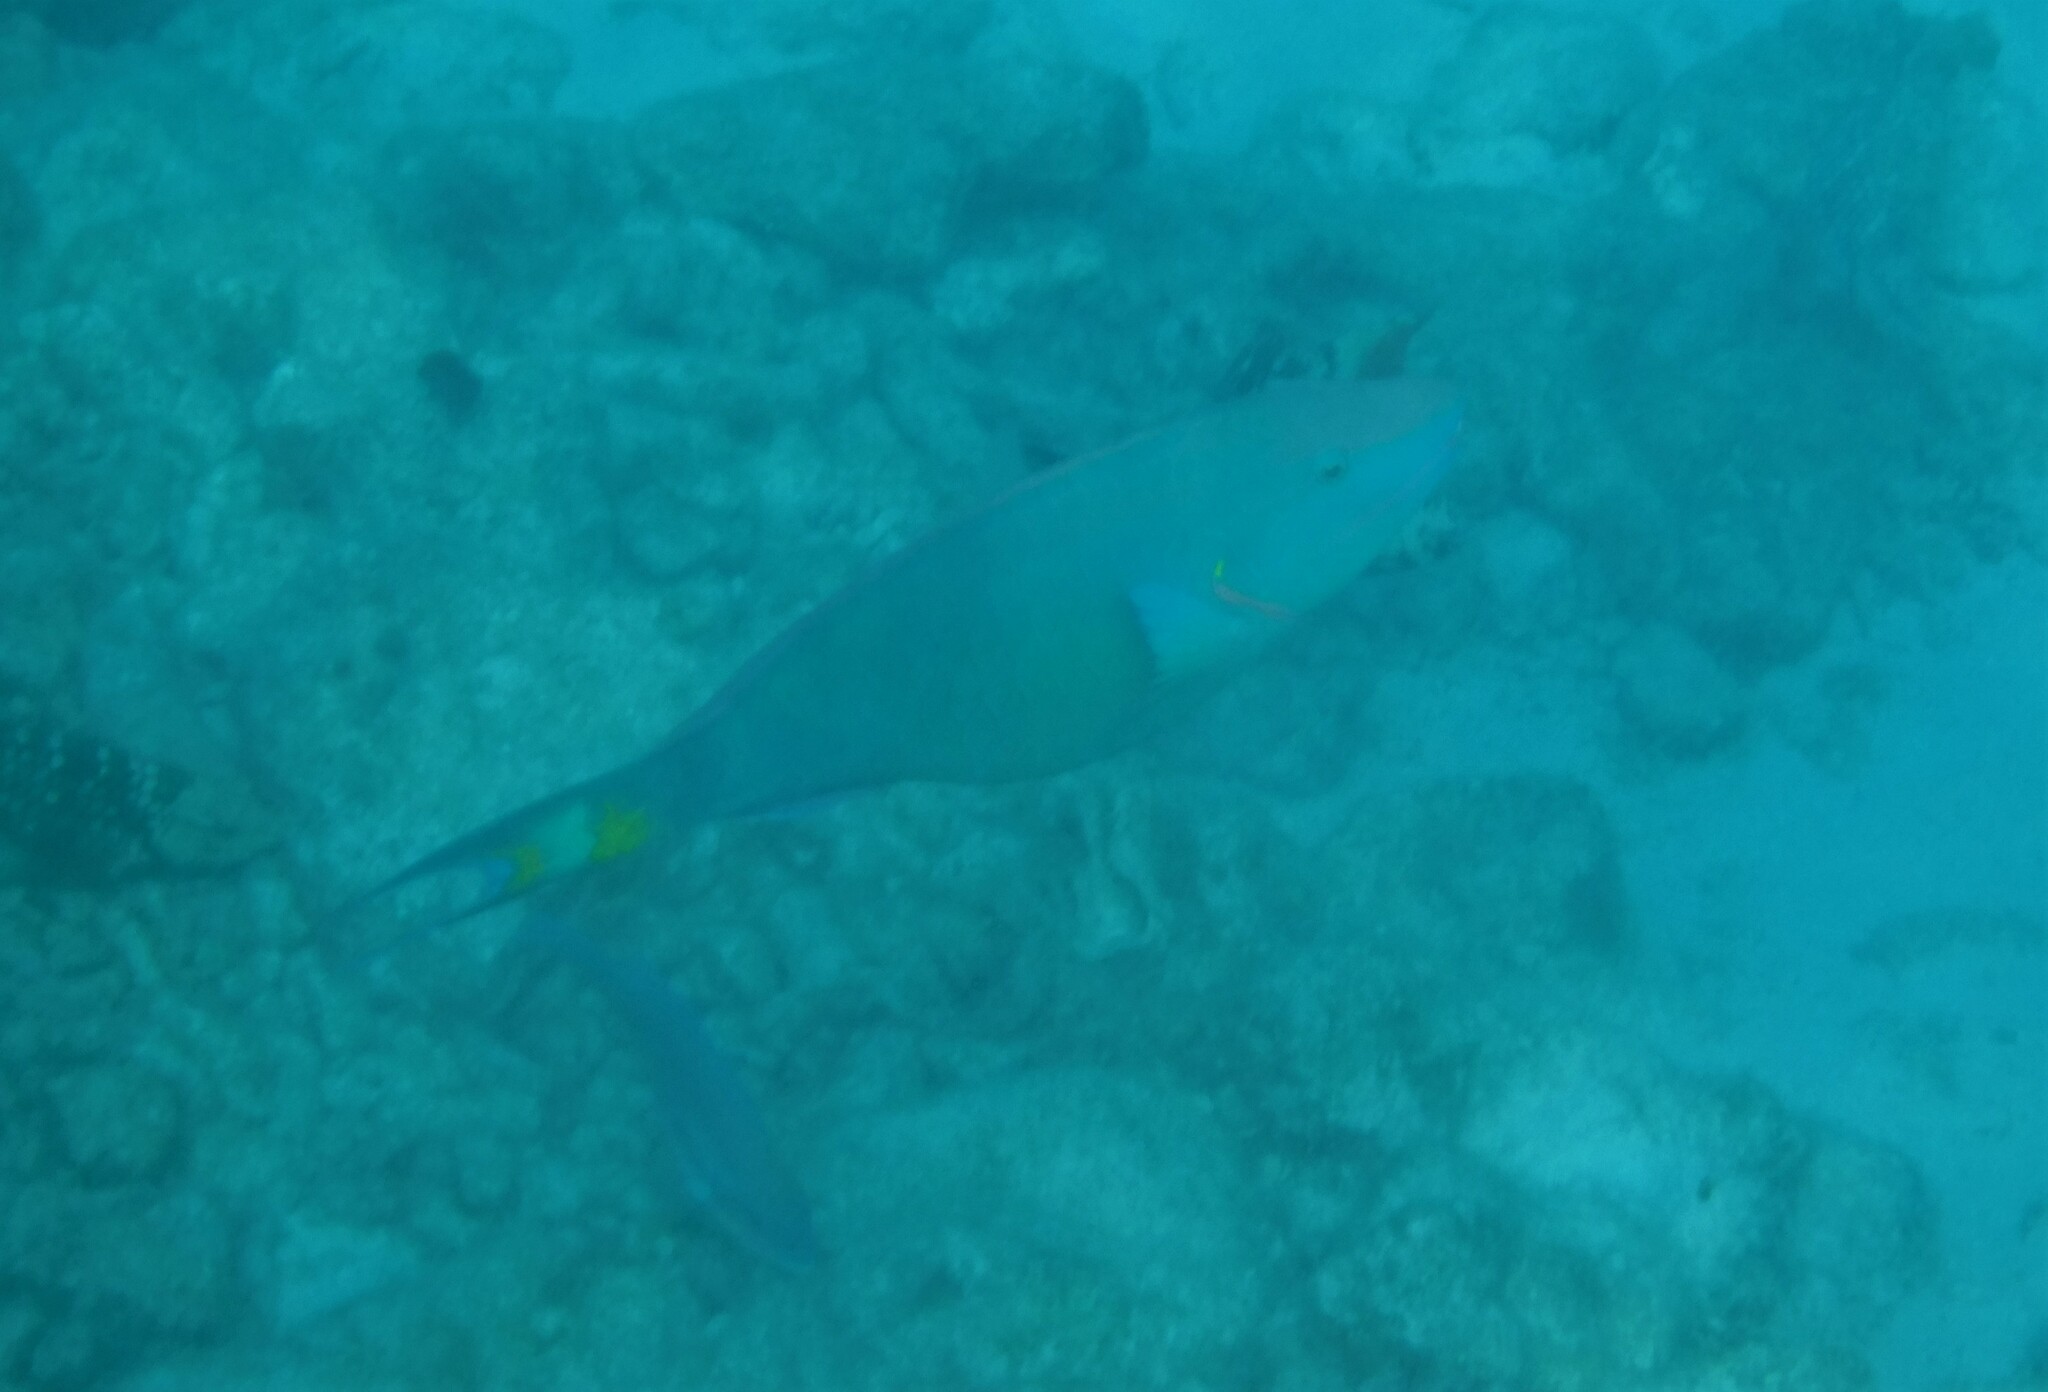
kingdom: Animalia
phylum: Chordata
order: Perciformes
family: Scaridae
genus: Sparisoma
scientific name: Sparisoma viride
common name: Stoplight parrotfish
